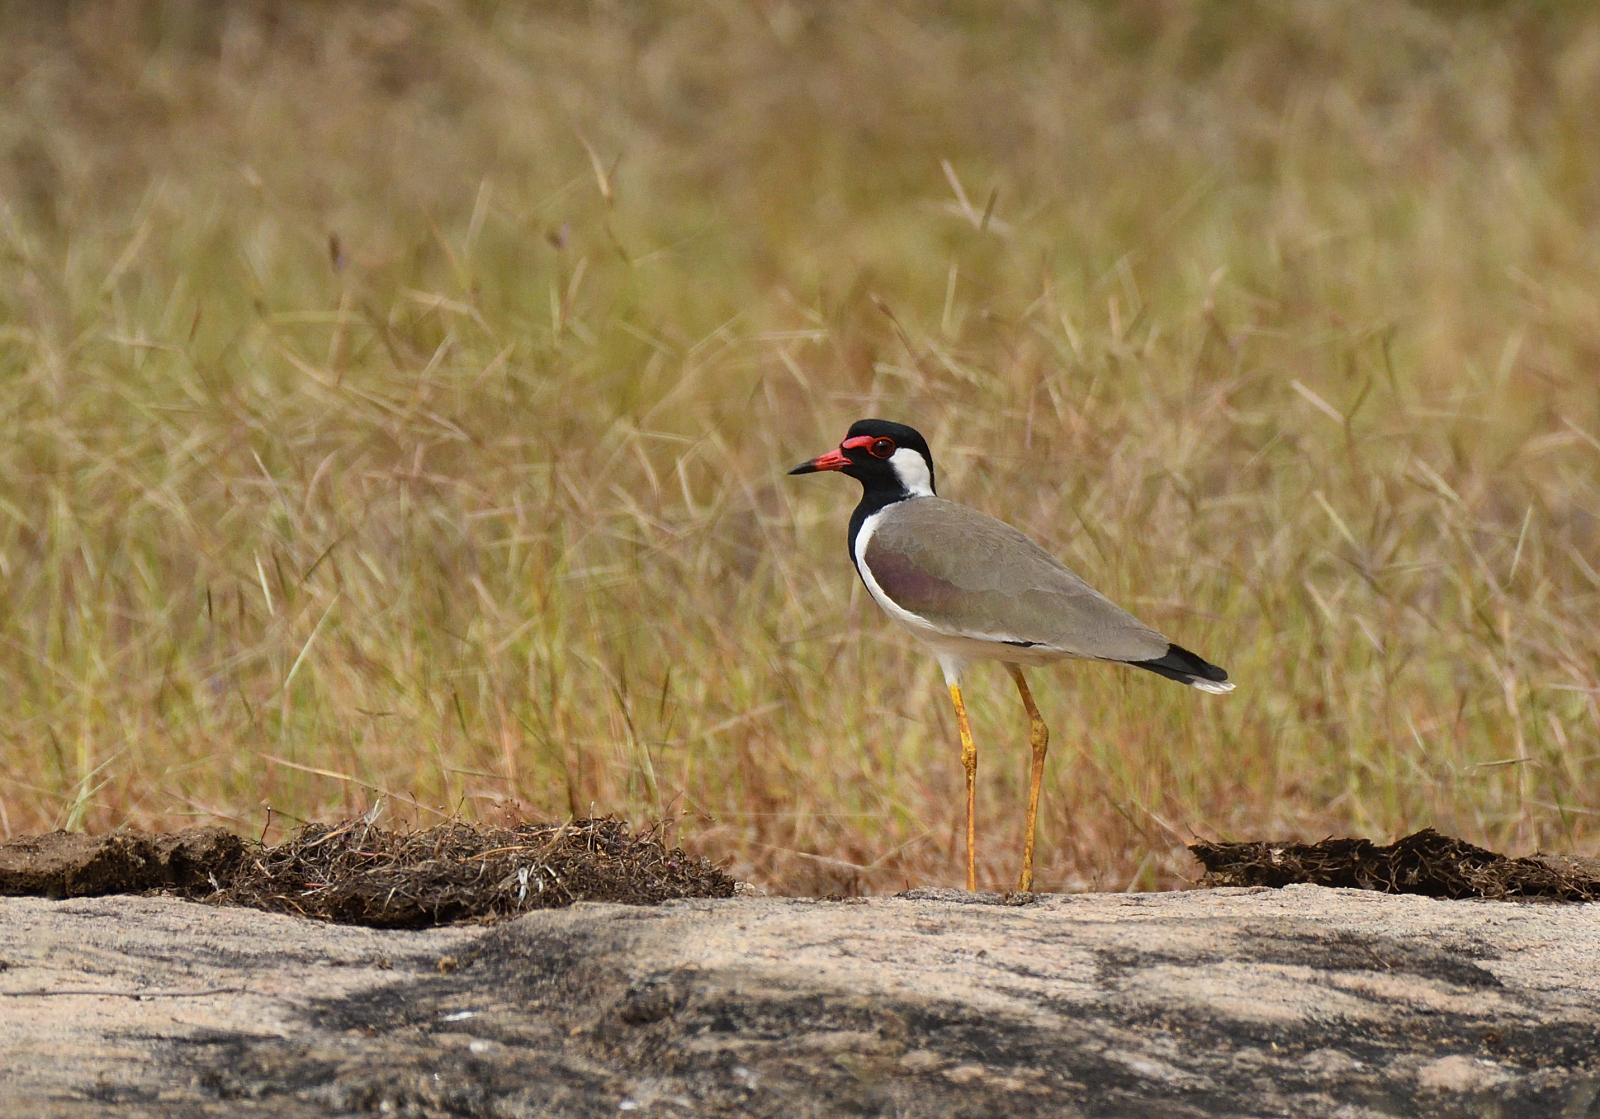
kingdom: Animalia
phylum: Chordata
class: Aves
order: Charadriiformes
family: Charadriidae
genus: Vanellus
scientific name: Vanellus indicus
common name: Red-wattled lapwing
